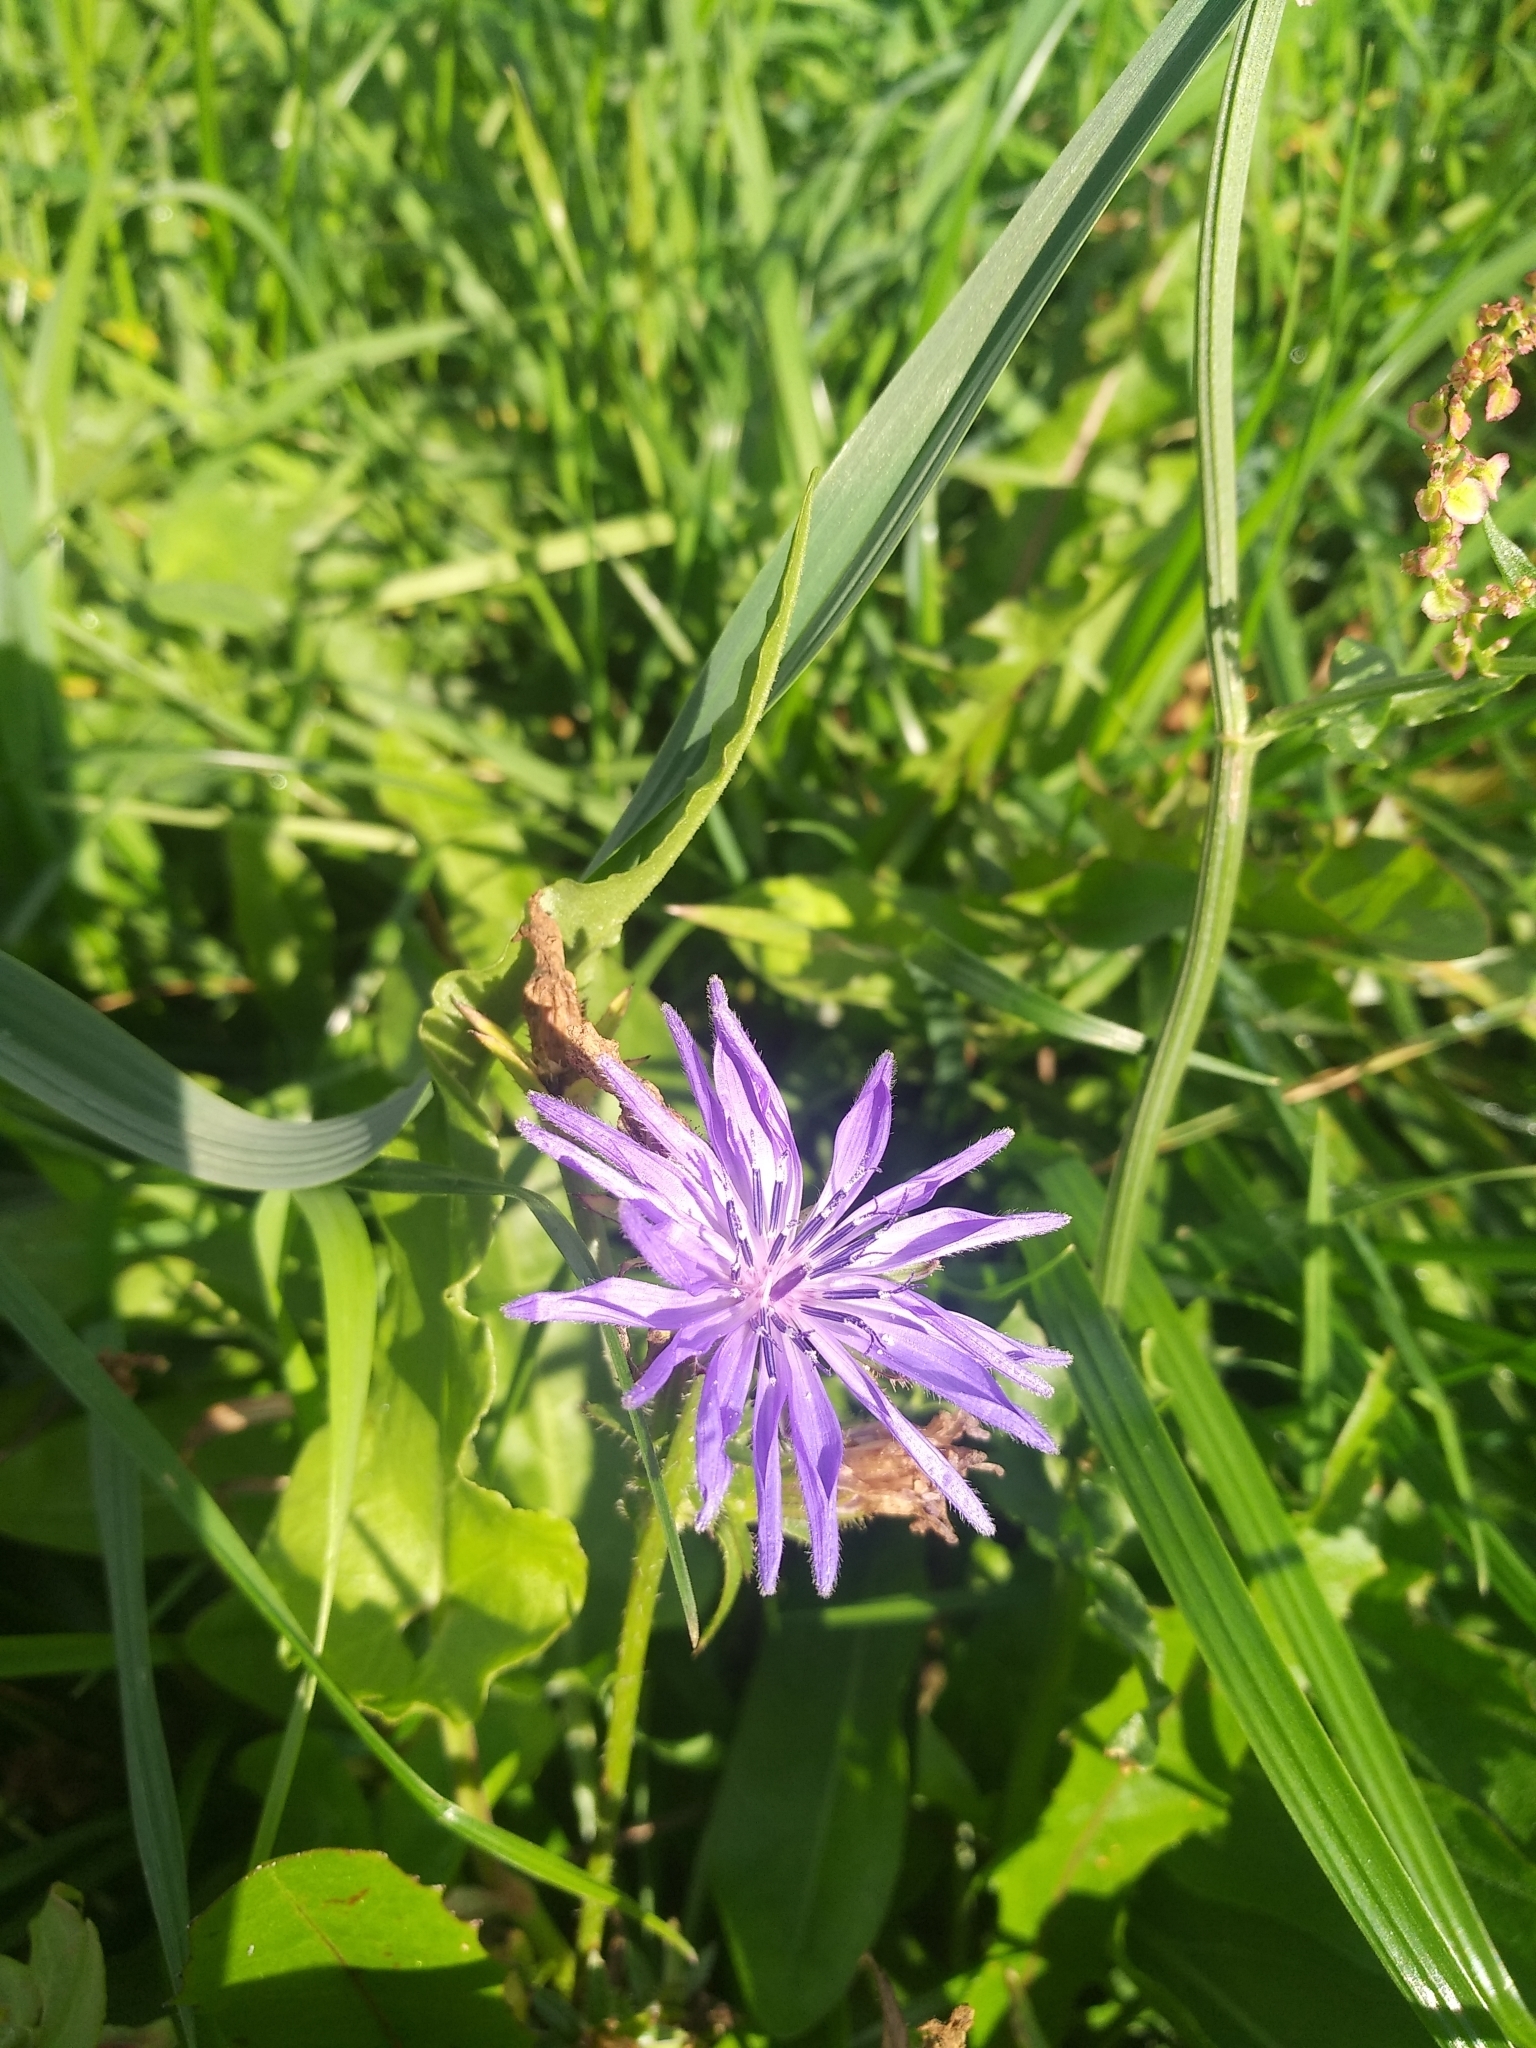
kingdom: Plantae
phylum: Tracheophyta
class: Magnoliopsida
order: Asterales
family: Asteraceae
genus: Cichorium
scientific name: Cichorium intybus
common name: Chicory
